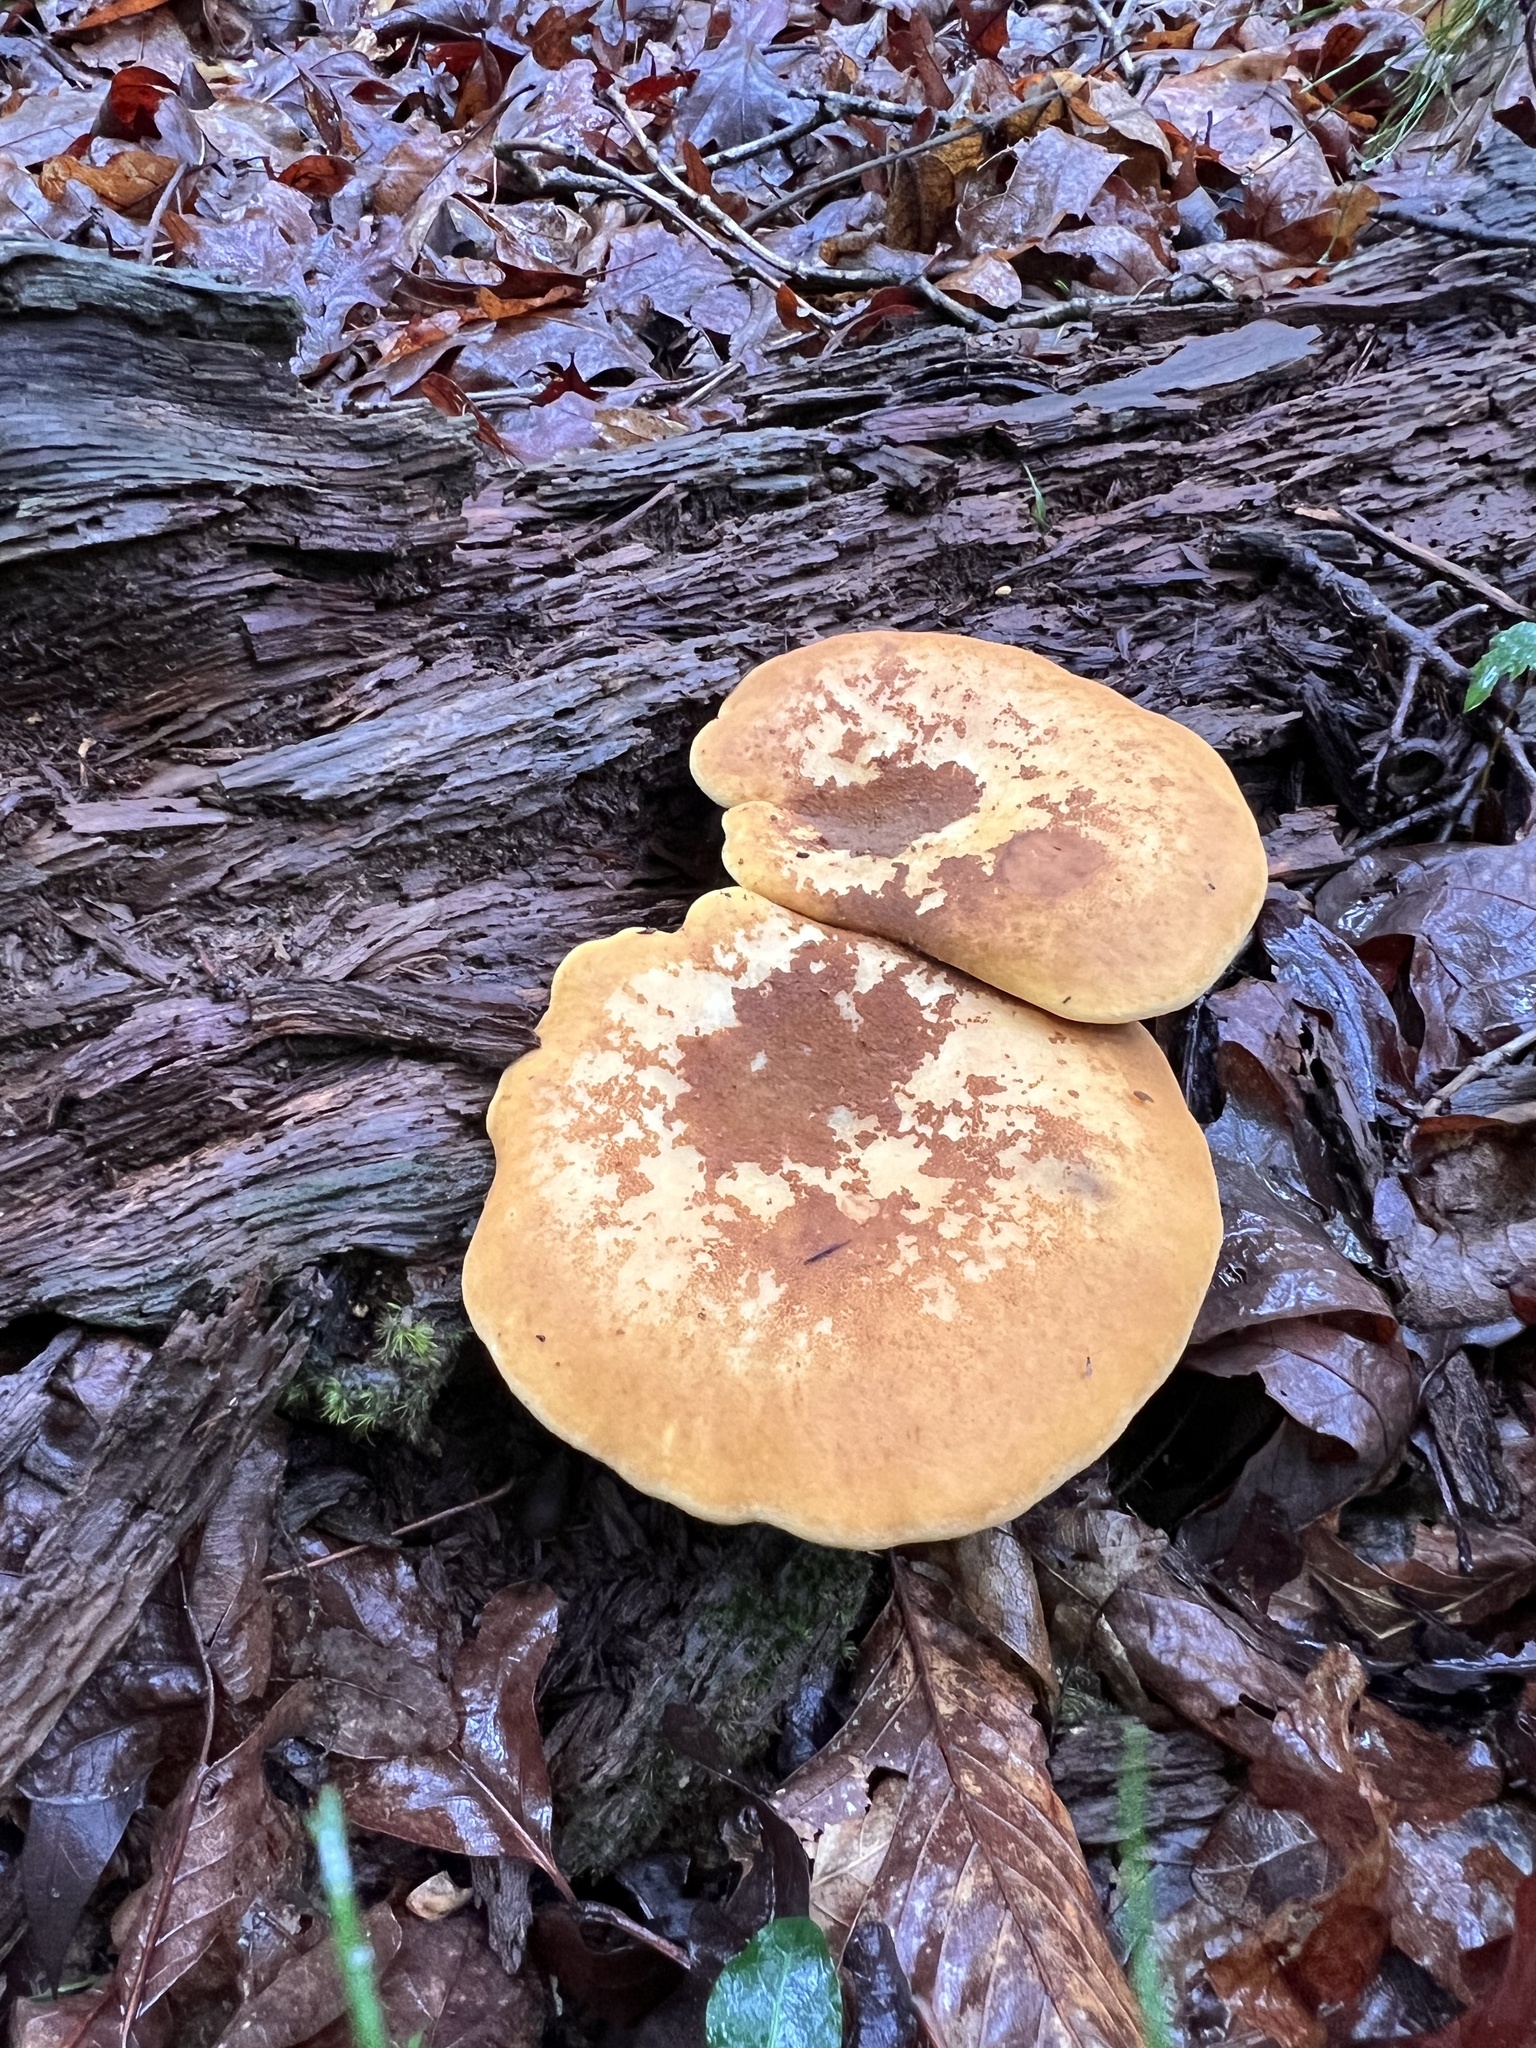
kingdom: Fungi
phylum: Basidiomycota
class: Agaricomycetes
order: Boletales
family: Tapinellaceae
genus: Tapinella
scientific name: Tapinella atrotomentosa
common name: Velvet rollrim
